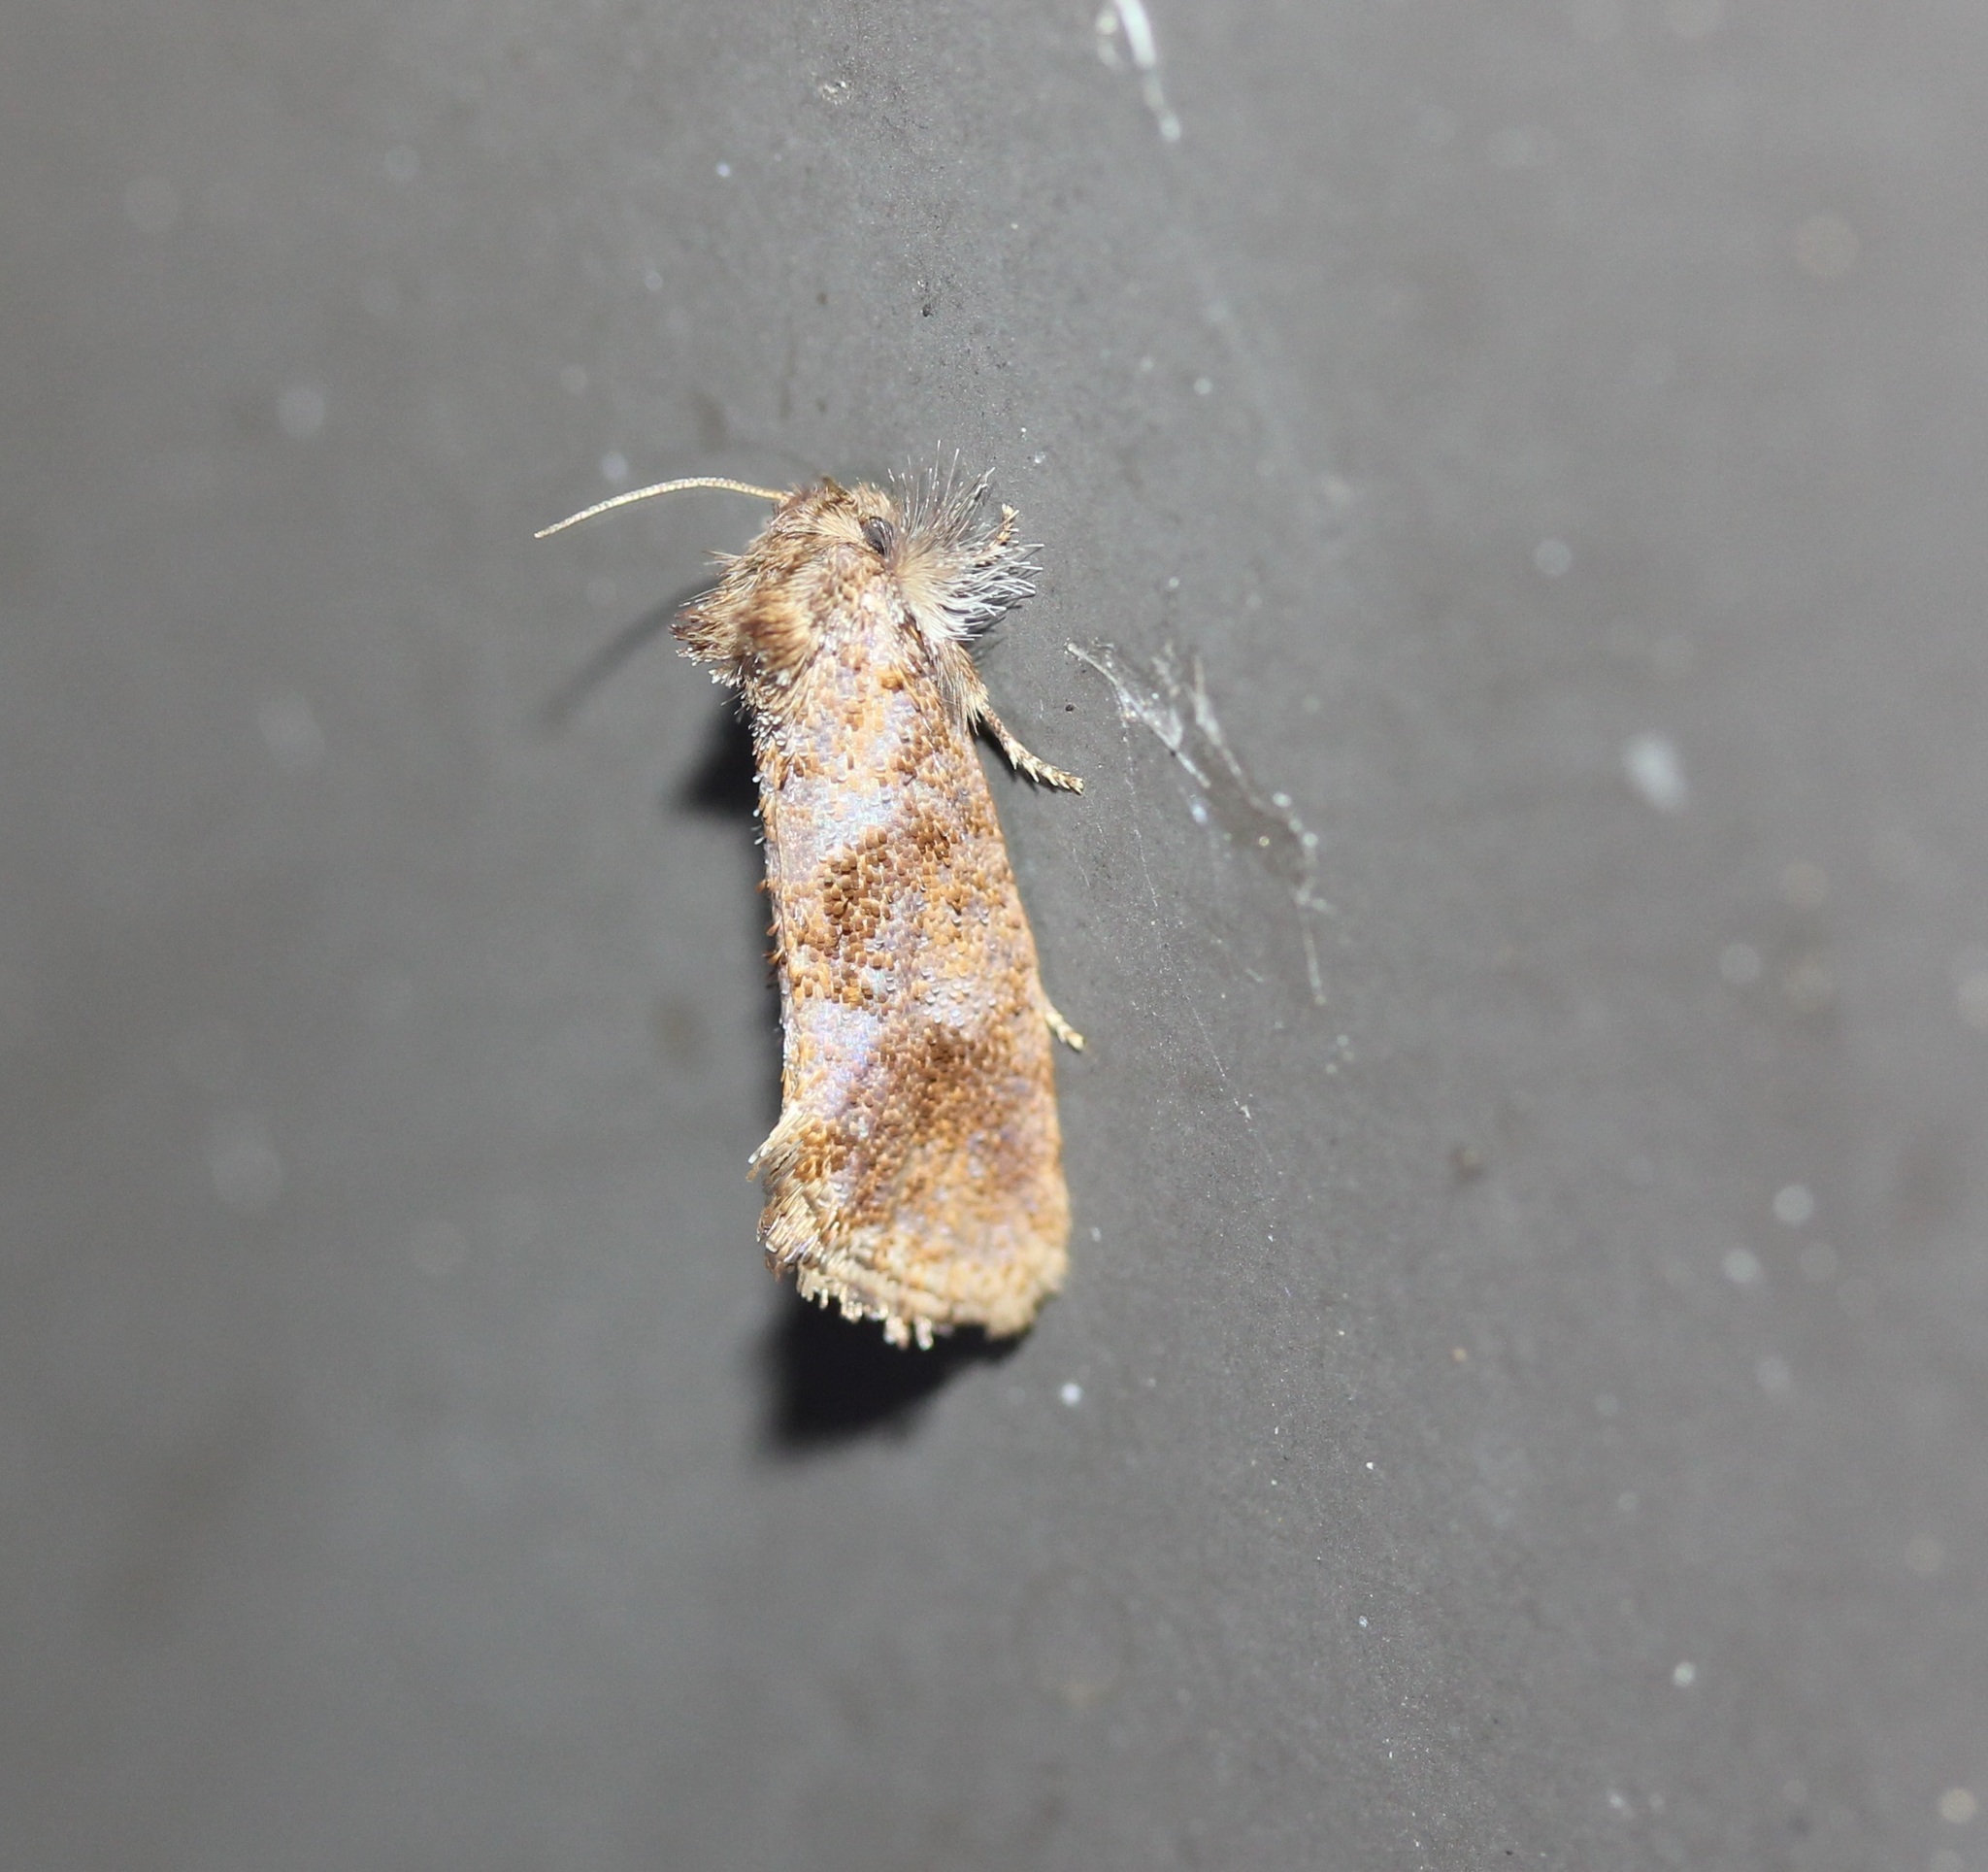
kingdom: Animalia
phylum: Arthropoda
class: Insecta
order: Lepidoptera
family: Tineidae
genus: Acrolophus
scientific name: Acrolophus panamae
